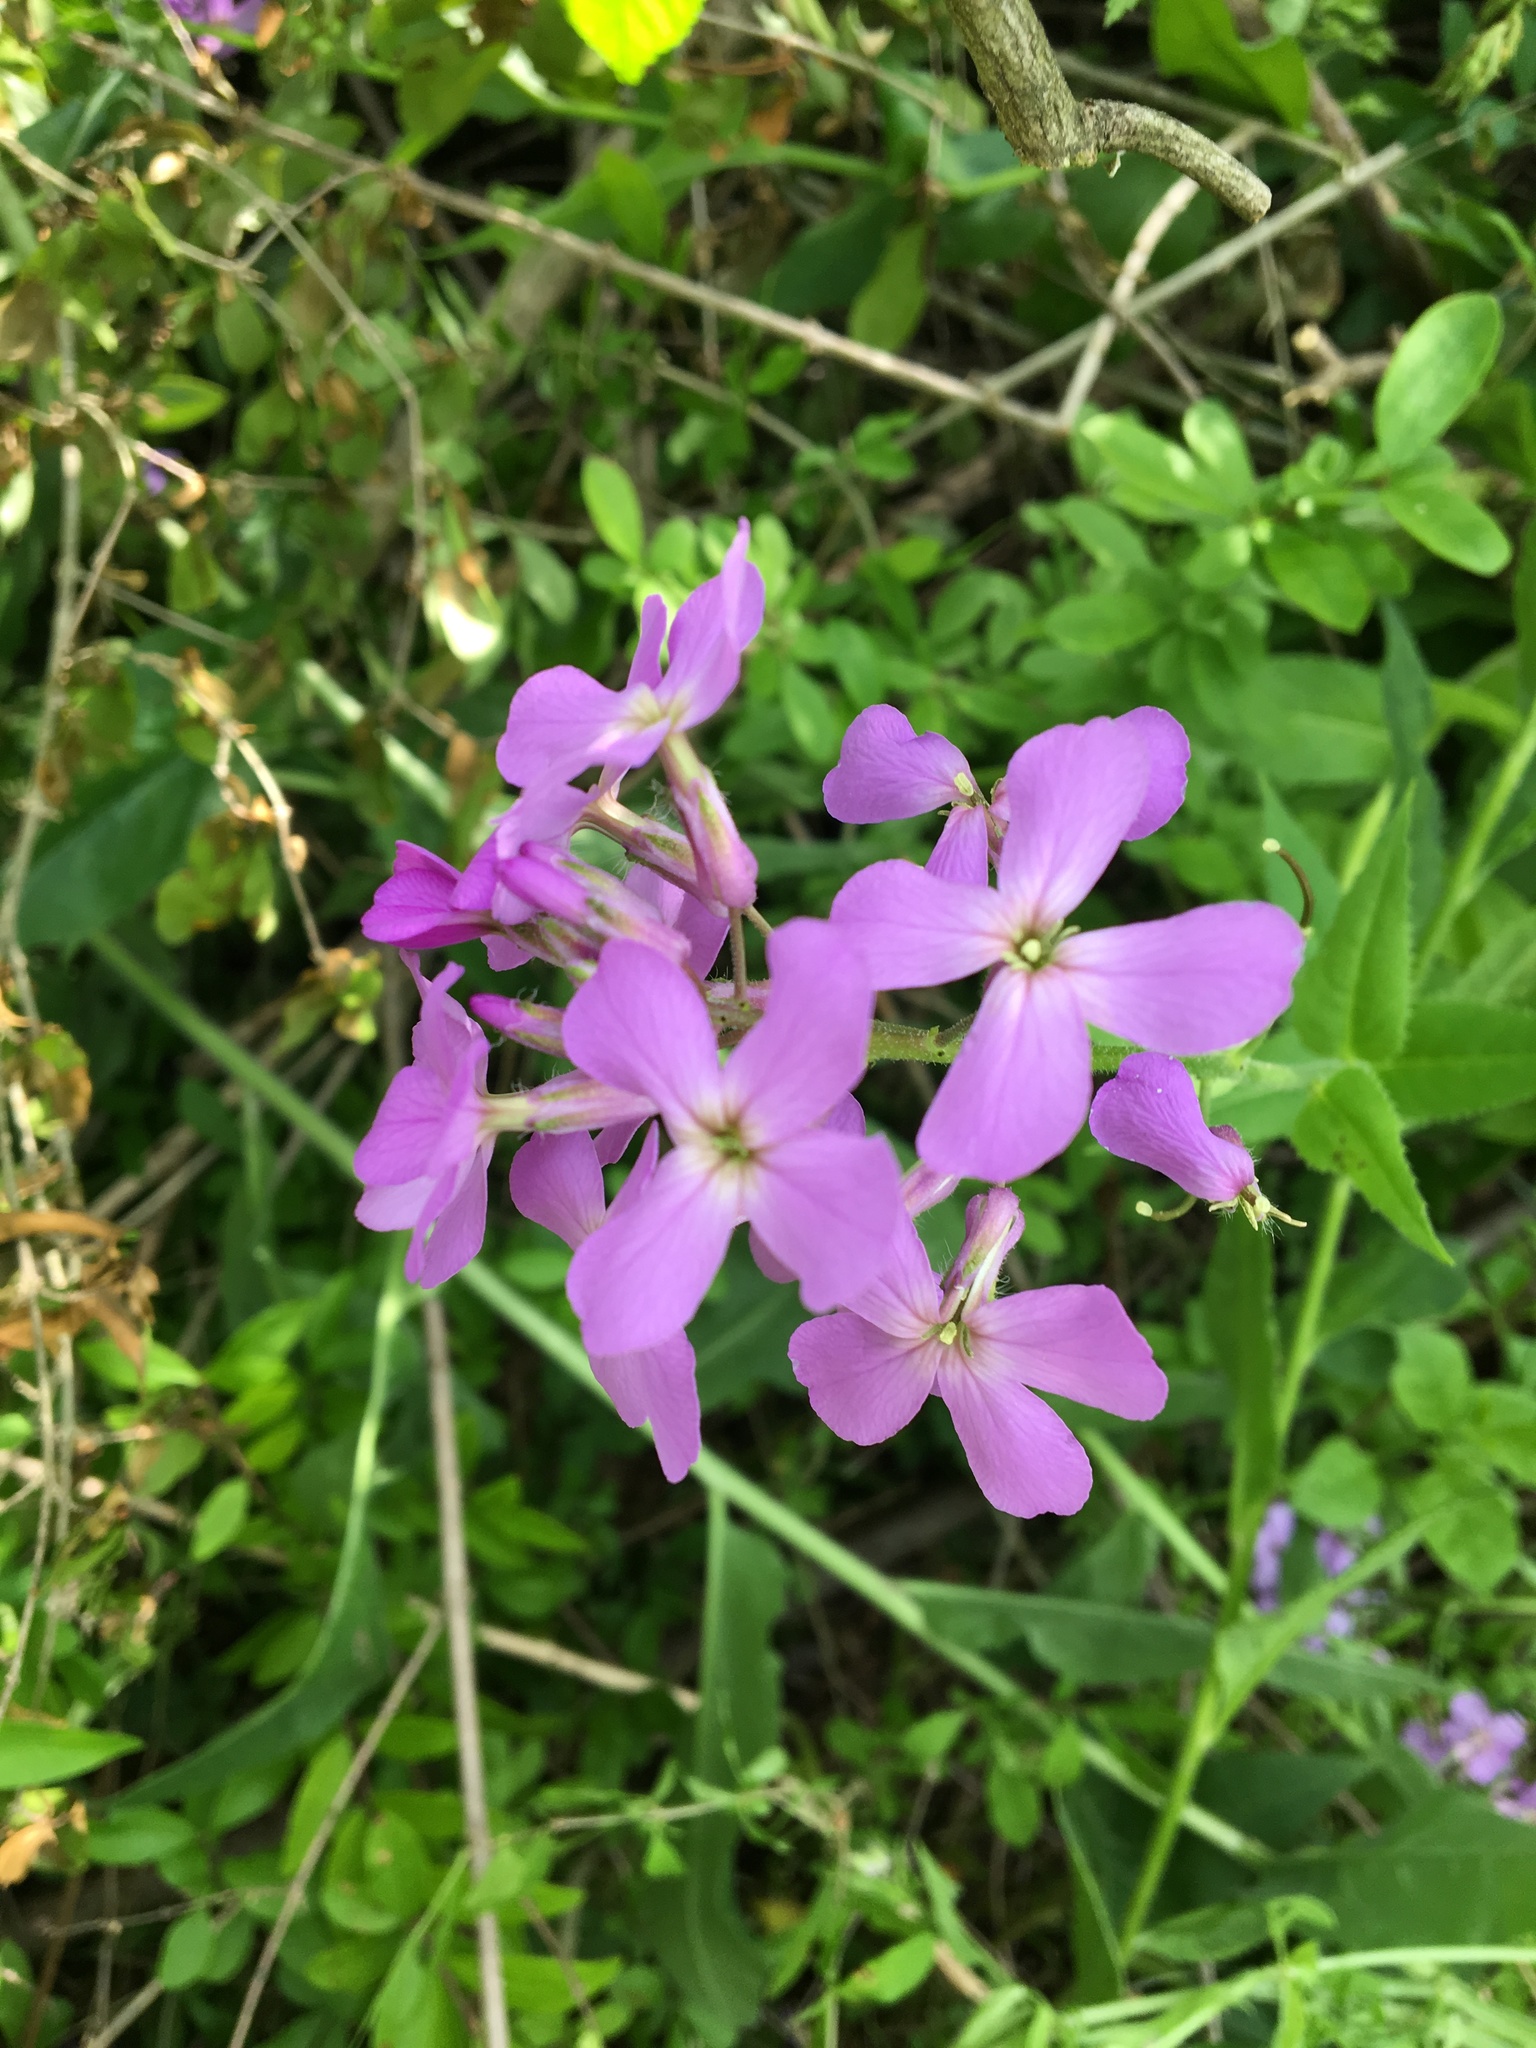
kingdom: Plantae
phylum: Tracheophyta
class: Magnoliopsida
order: Brassicales
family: Brassicaceae
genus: Hesperis
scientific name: Hesperis matronalis
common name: Dame's-violet
